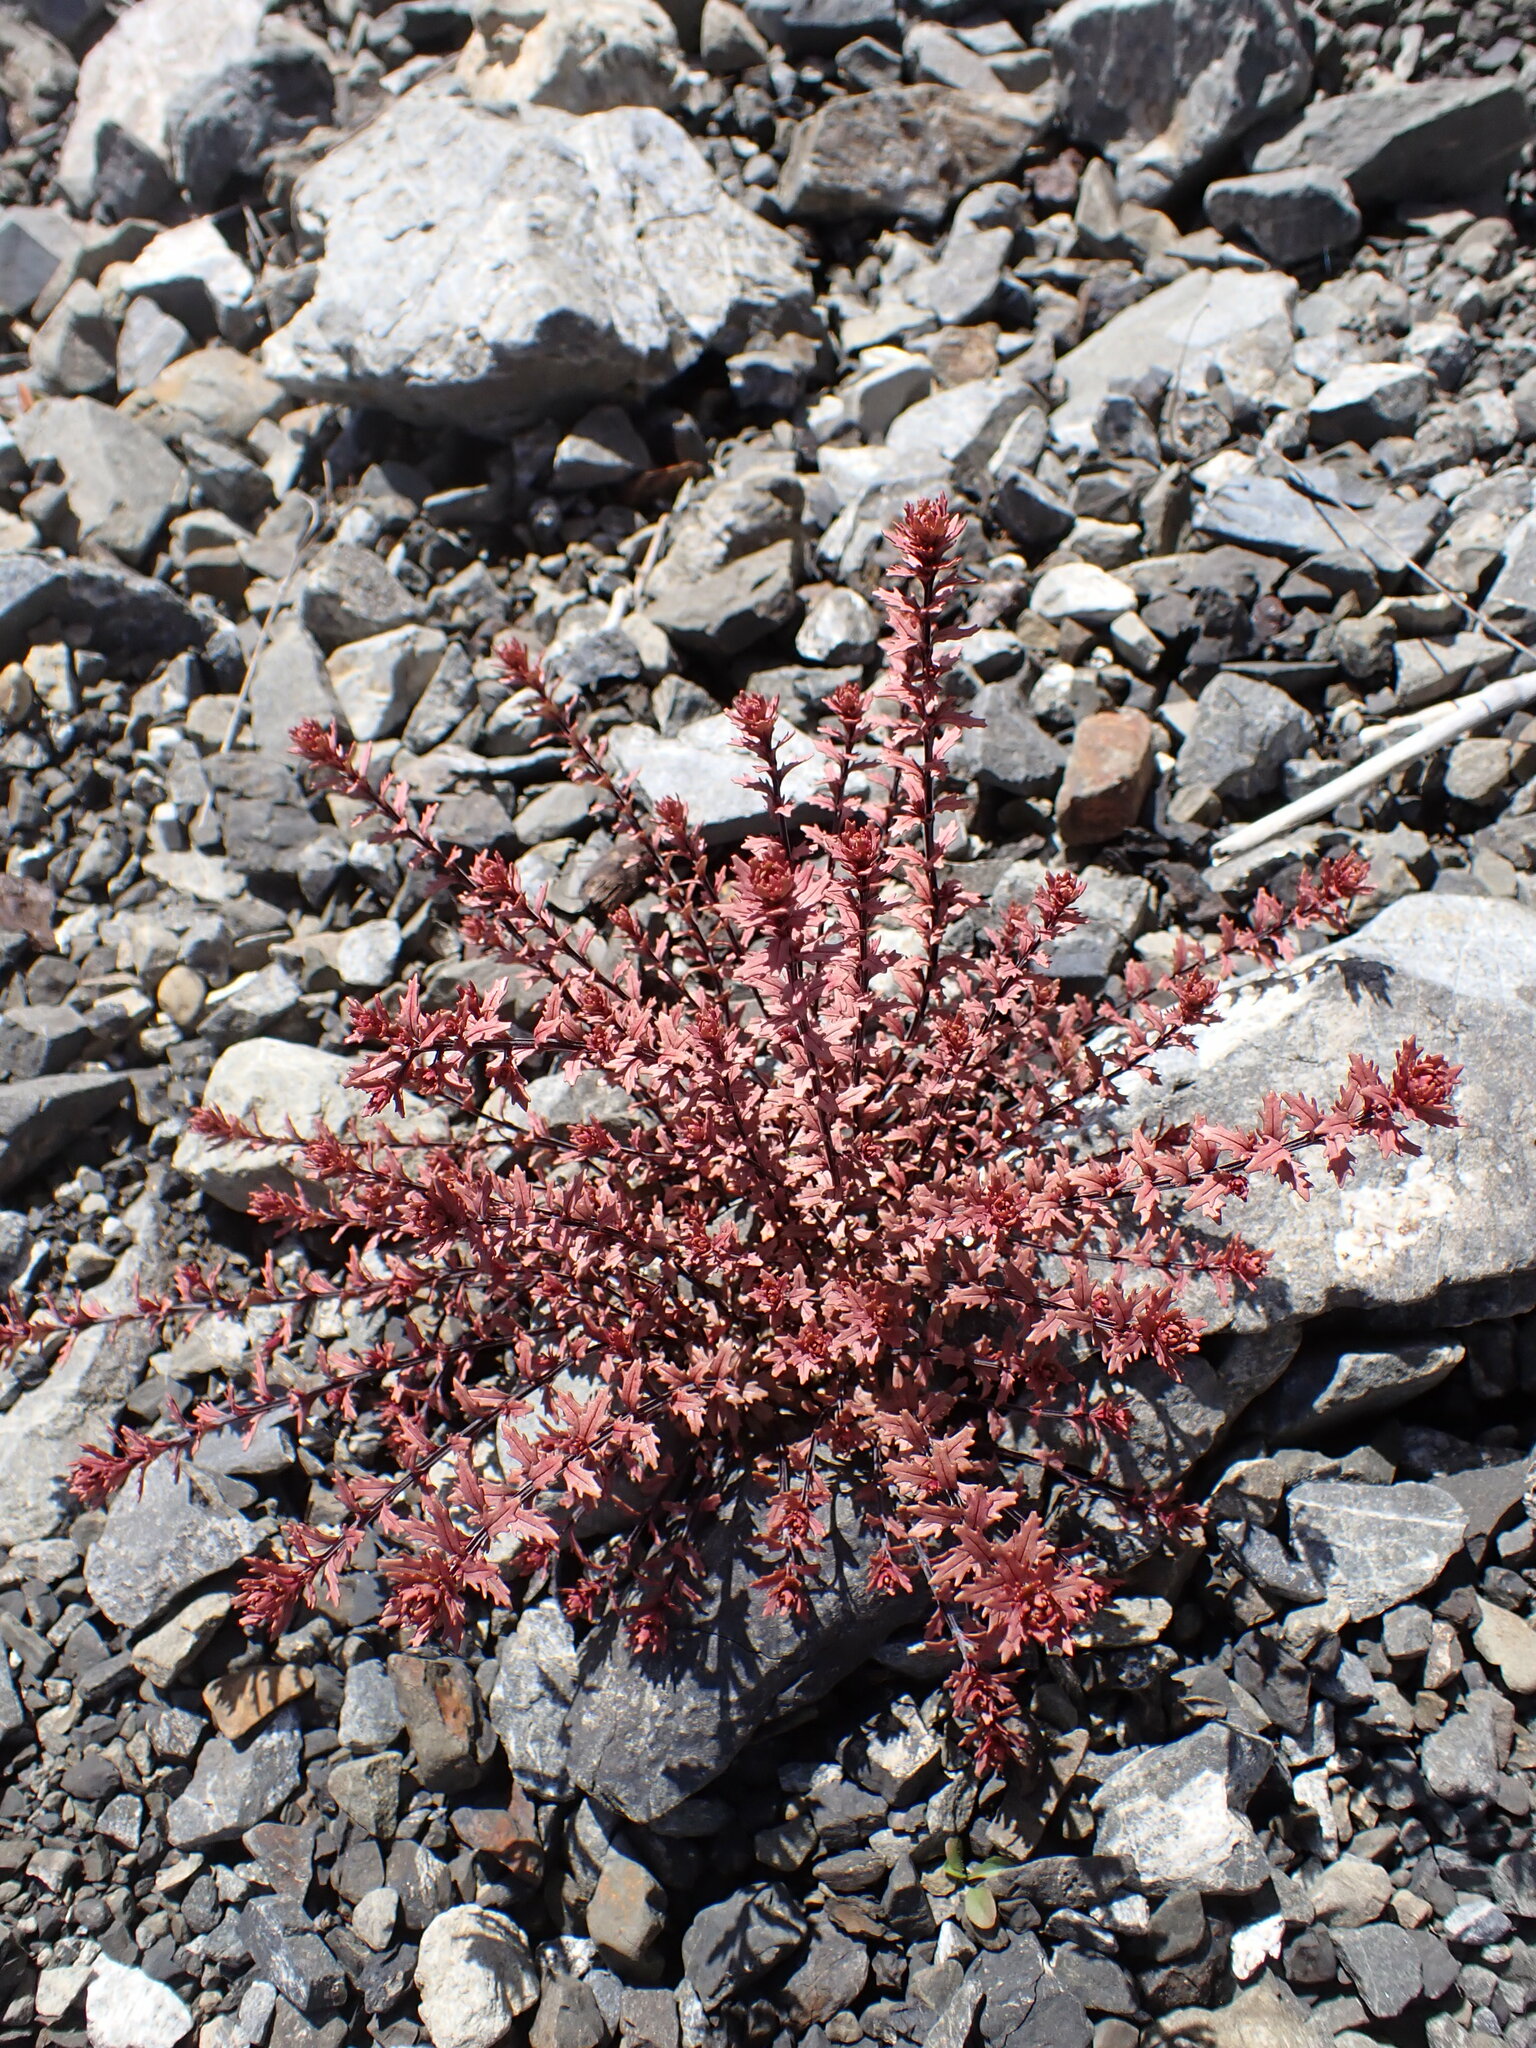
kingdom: Plantae
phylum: Tracheophyta
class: Magnoliopsida
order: Myrtales
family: Onagraceae
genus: Epilobium
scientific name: Epilobium melanocaulon
